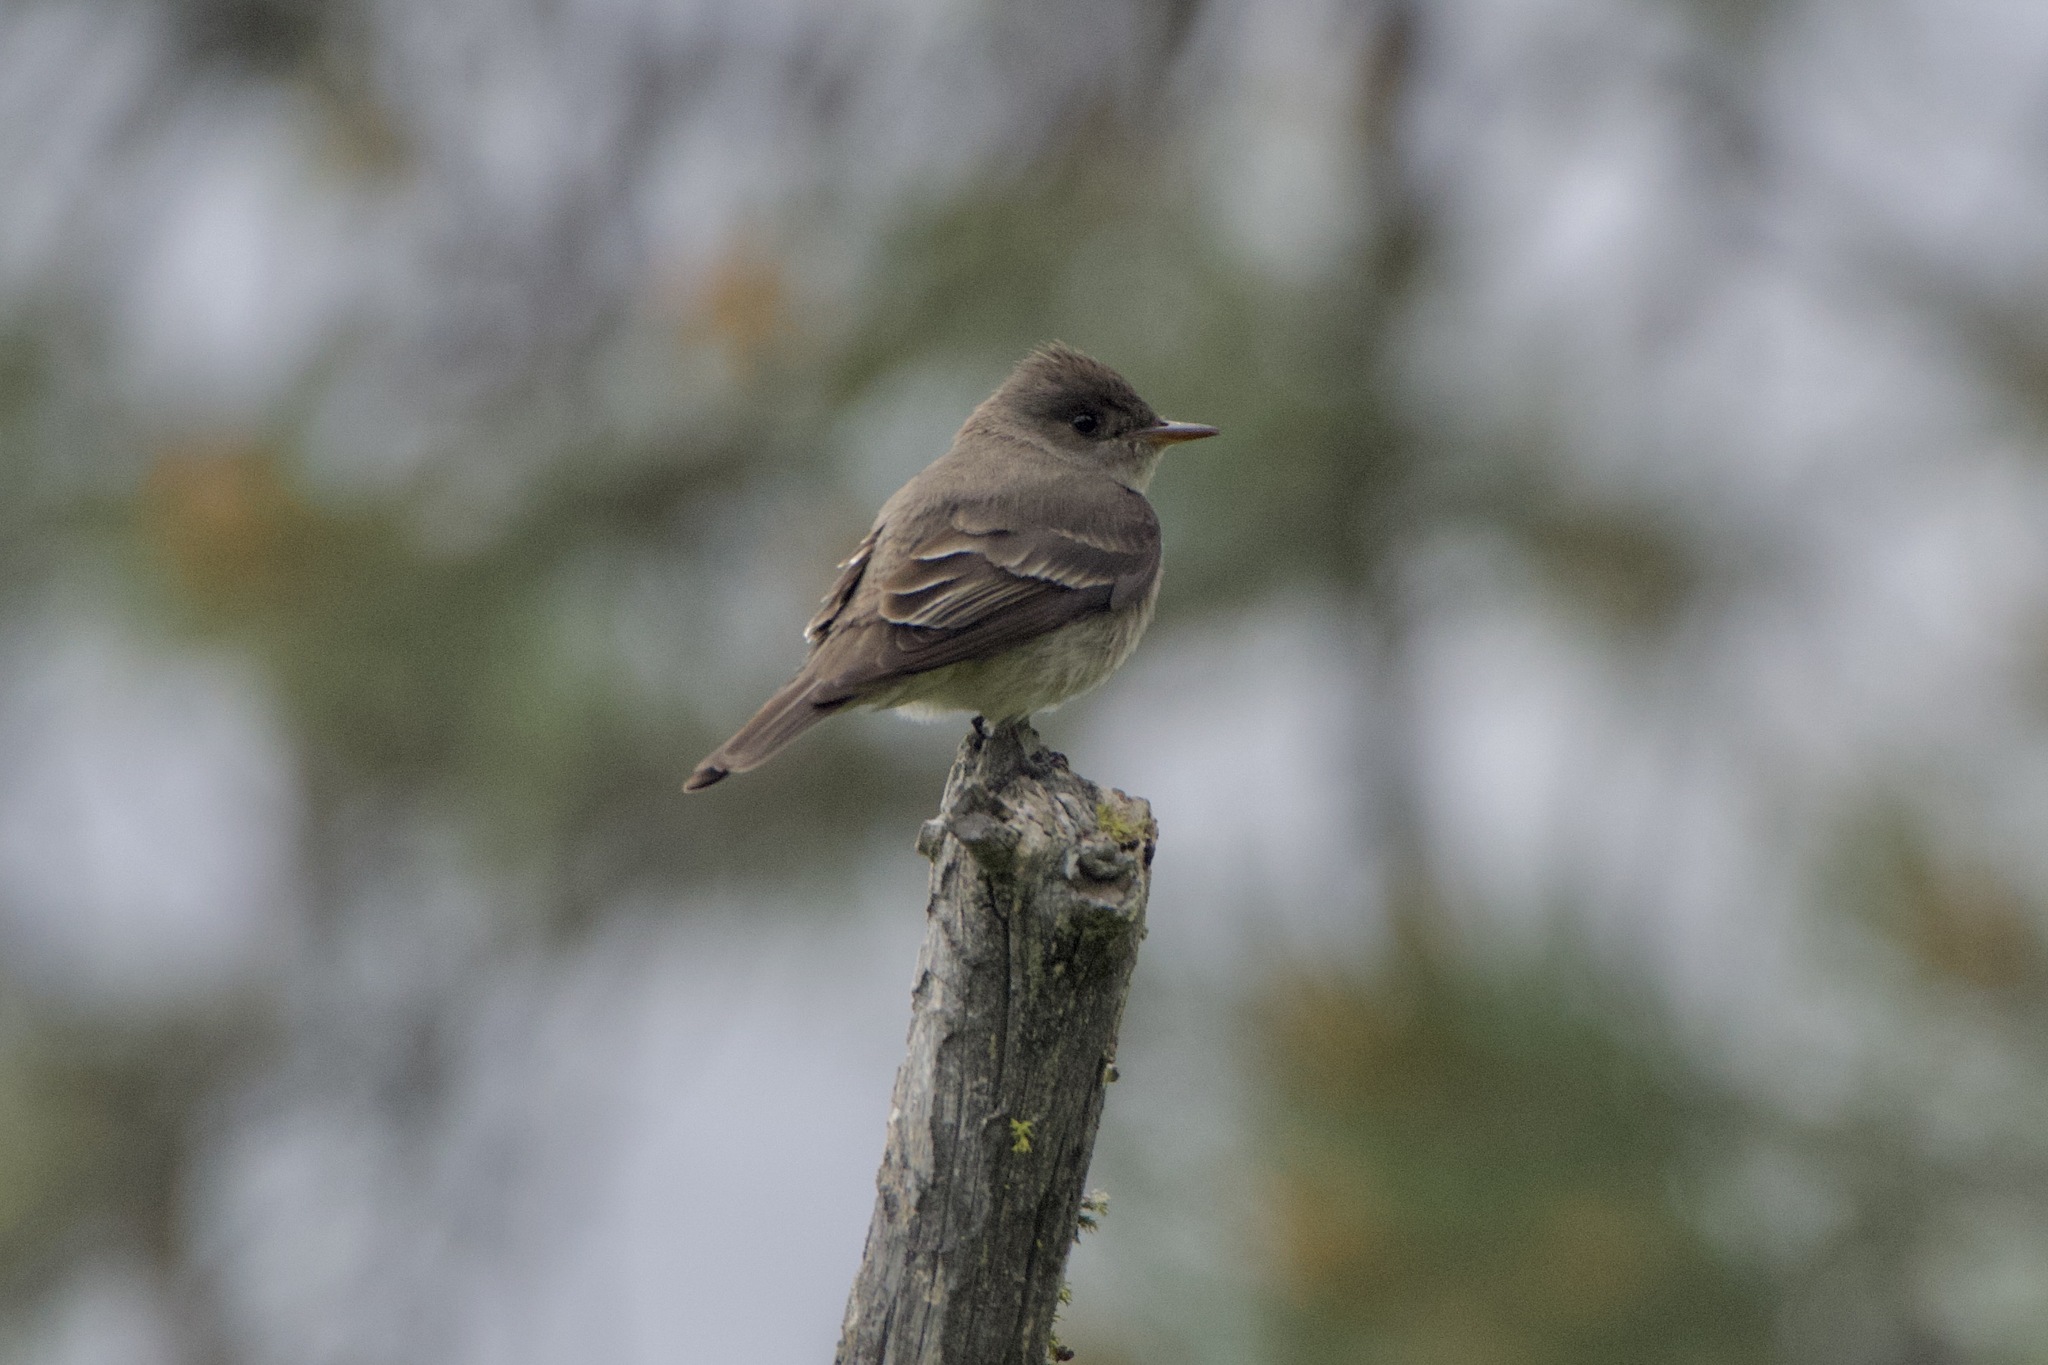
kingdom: Animalia
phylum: Chordata
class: Aves
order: Passeriformes
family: Tyrannidae
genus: Contopus
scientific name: Contopus sordidulus
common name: Western wood-pewee
